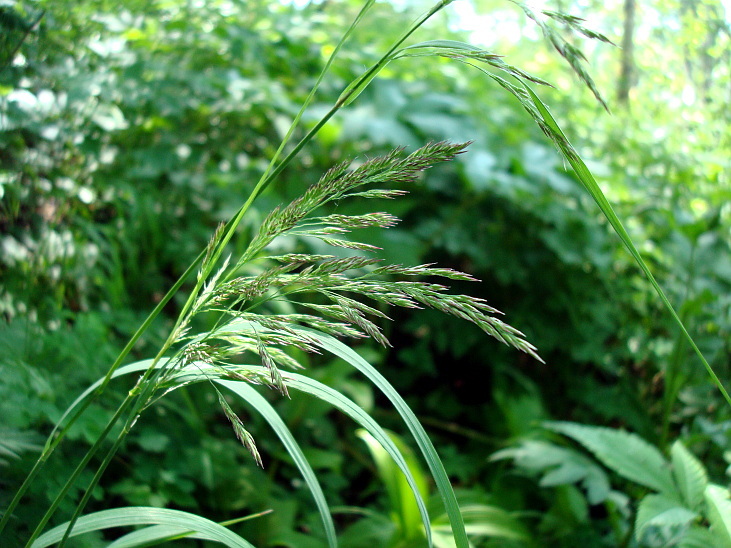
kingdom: Plantae
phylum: Tracheophyta
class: Liliopsida
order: Poales
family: Poaceae
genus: Calamagrostis
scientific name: Calamagrostis purpurea
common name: Scandinavian small-reed
